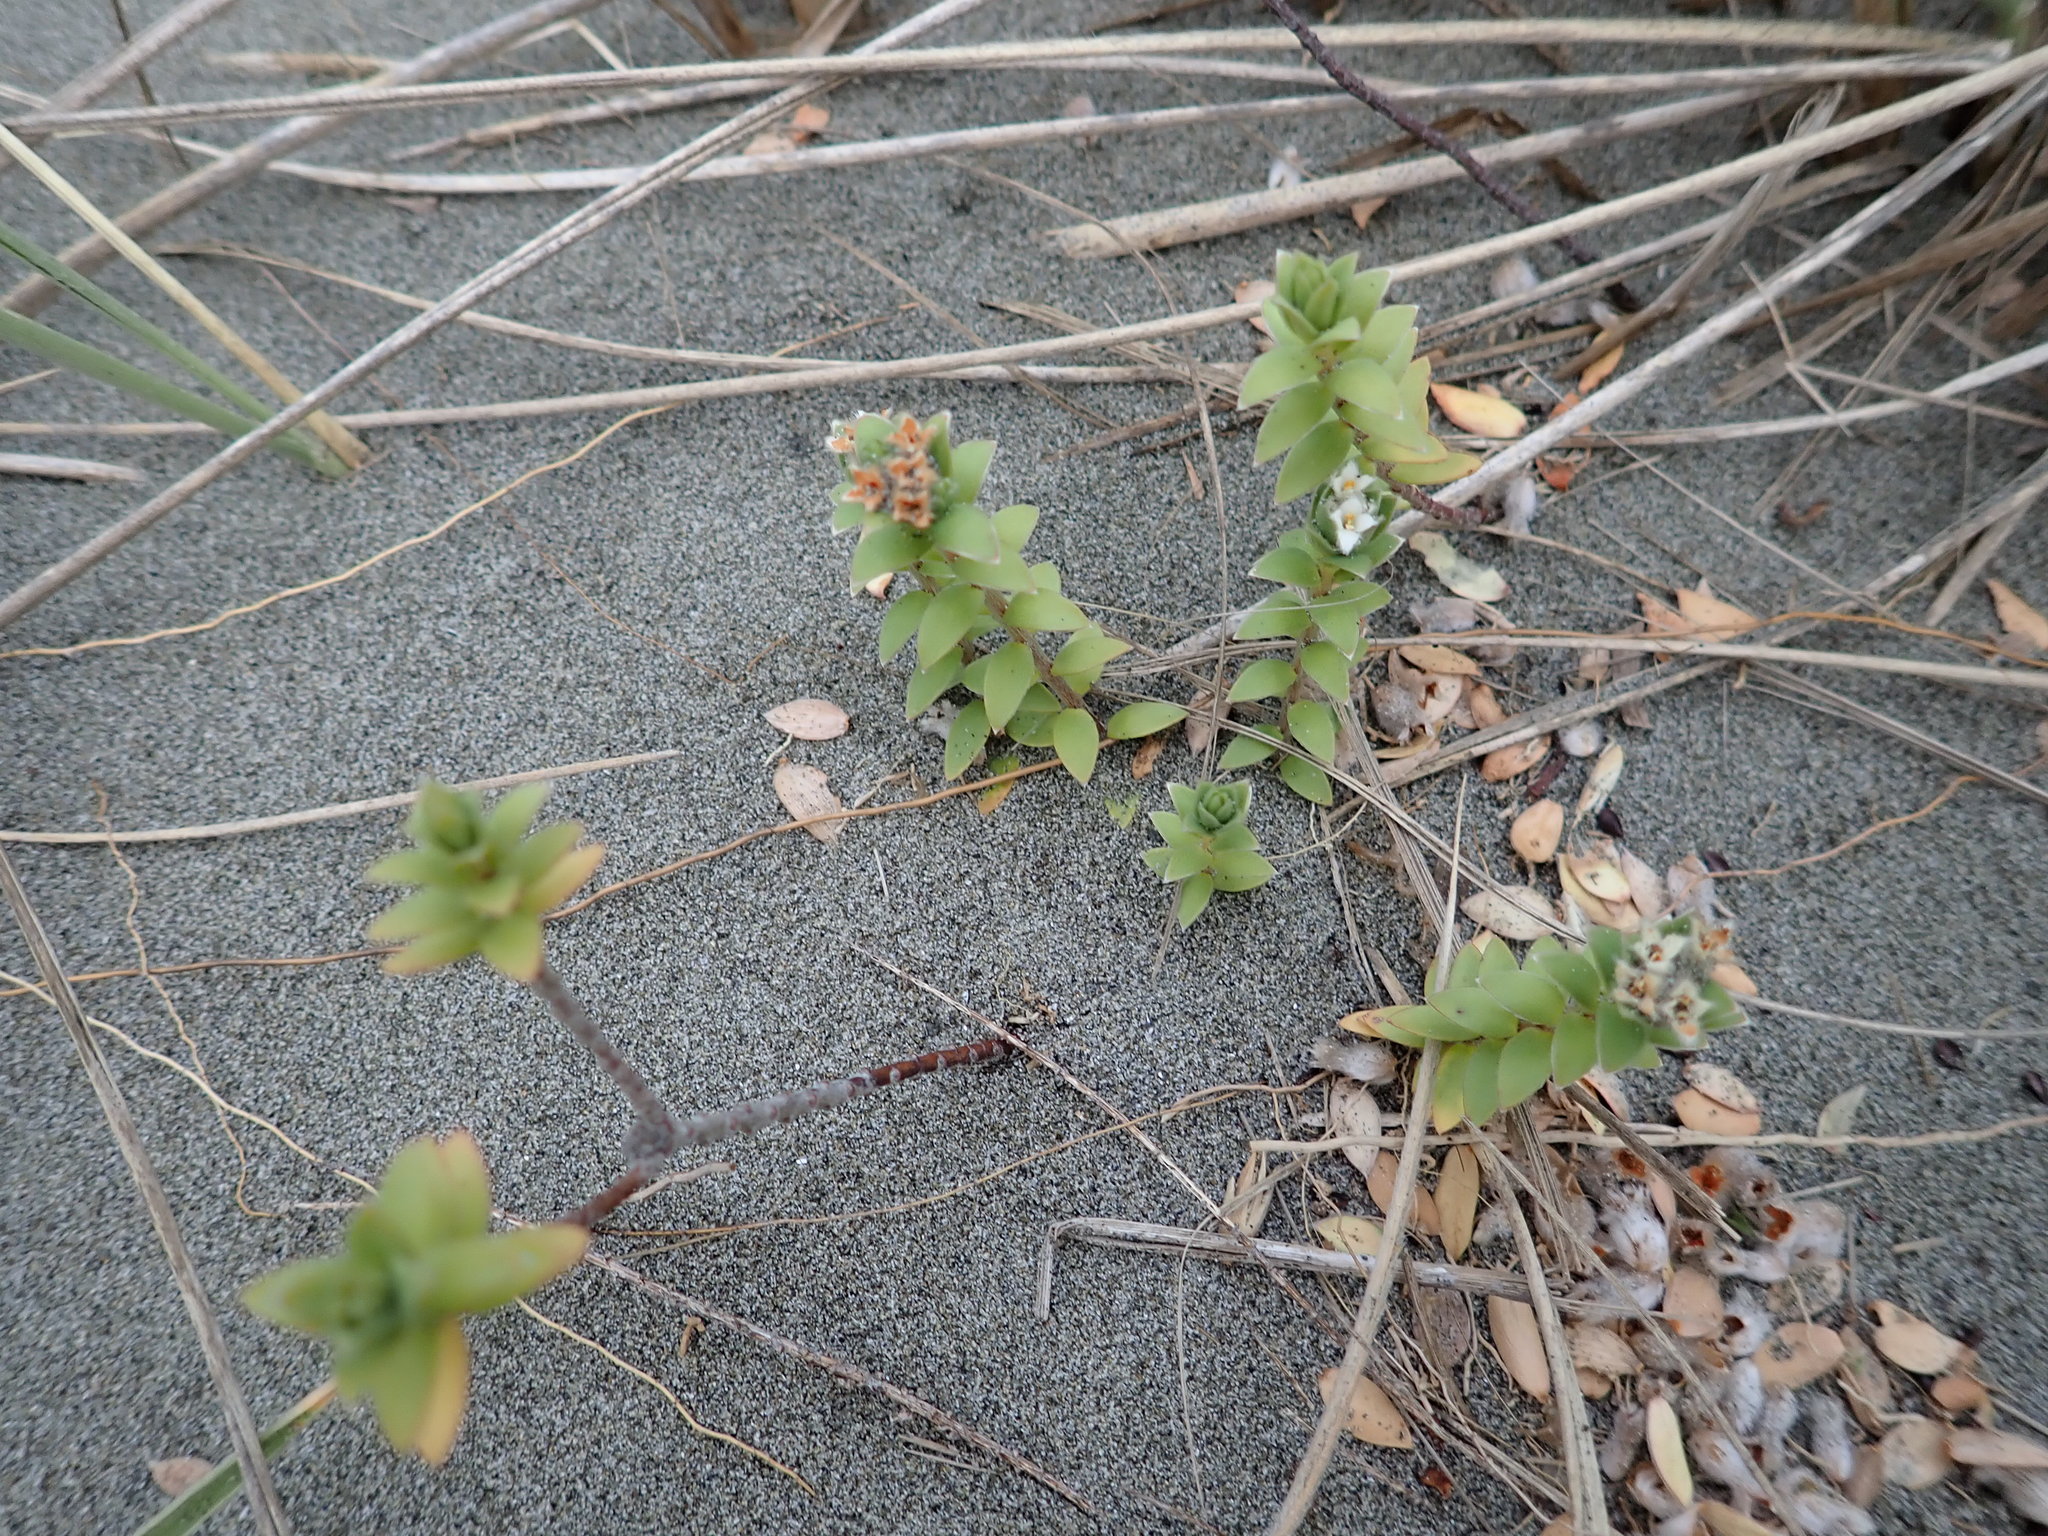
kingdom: Plantae
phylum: Tracheophyta
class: Magnoliopsida
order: Malvales
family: Thymelaeaceae
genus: Pimelea
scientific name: Pimelea villosa
